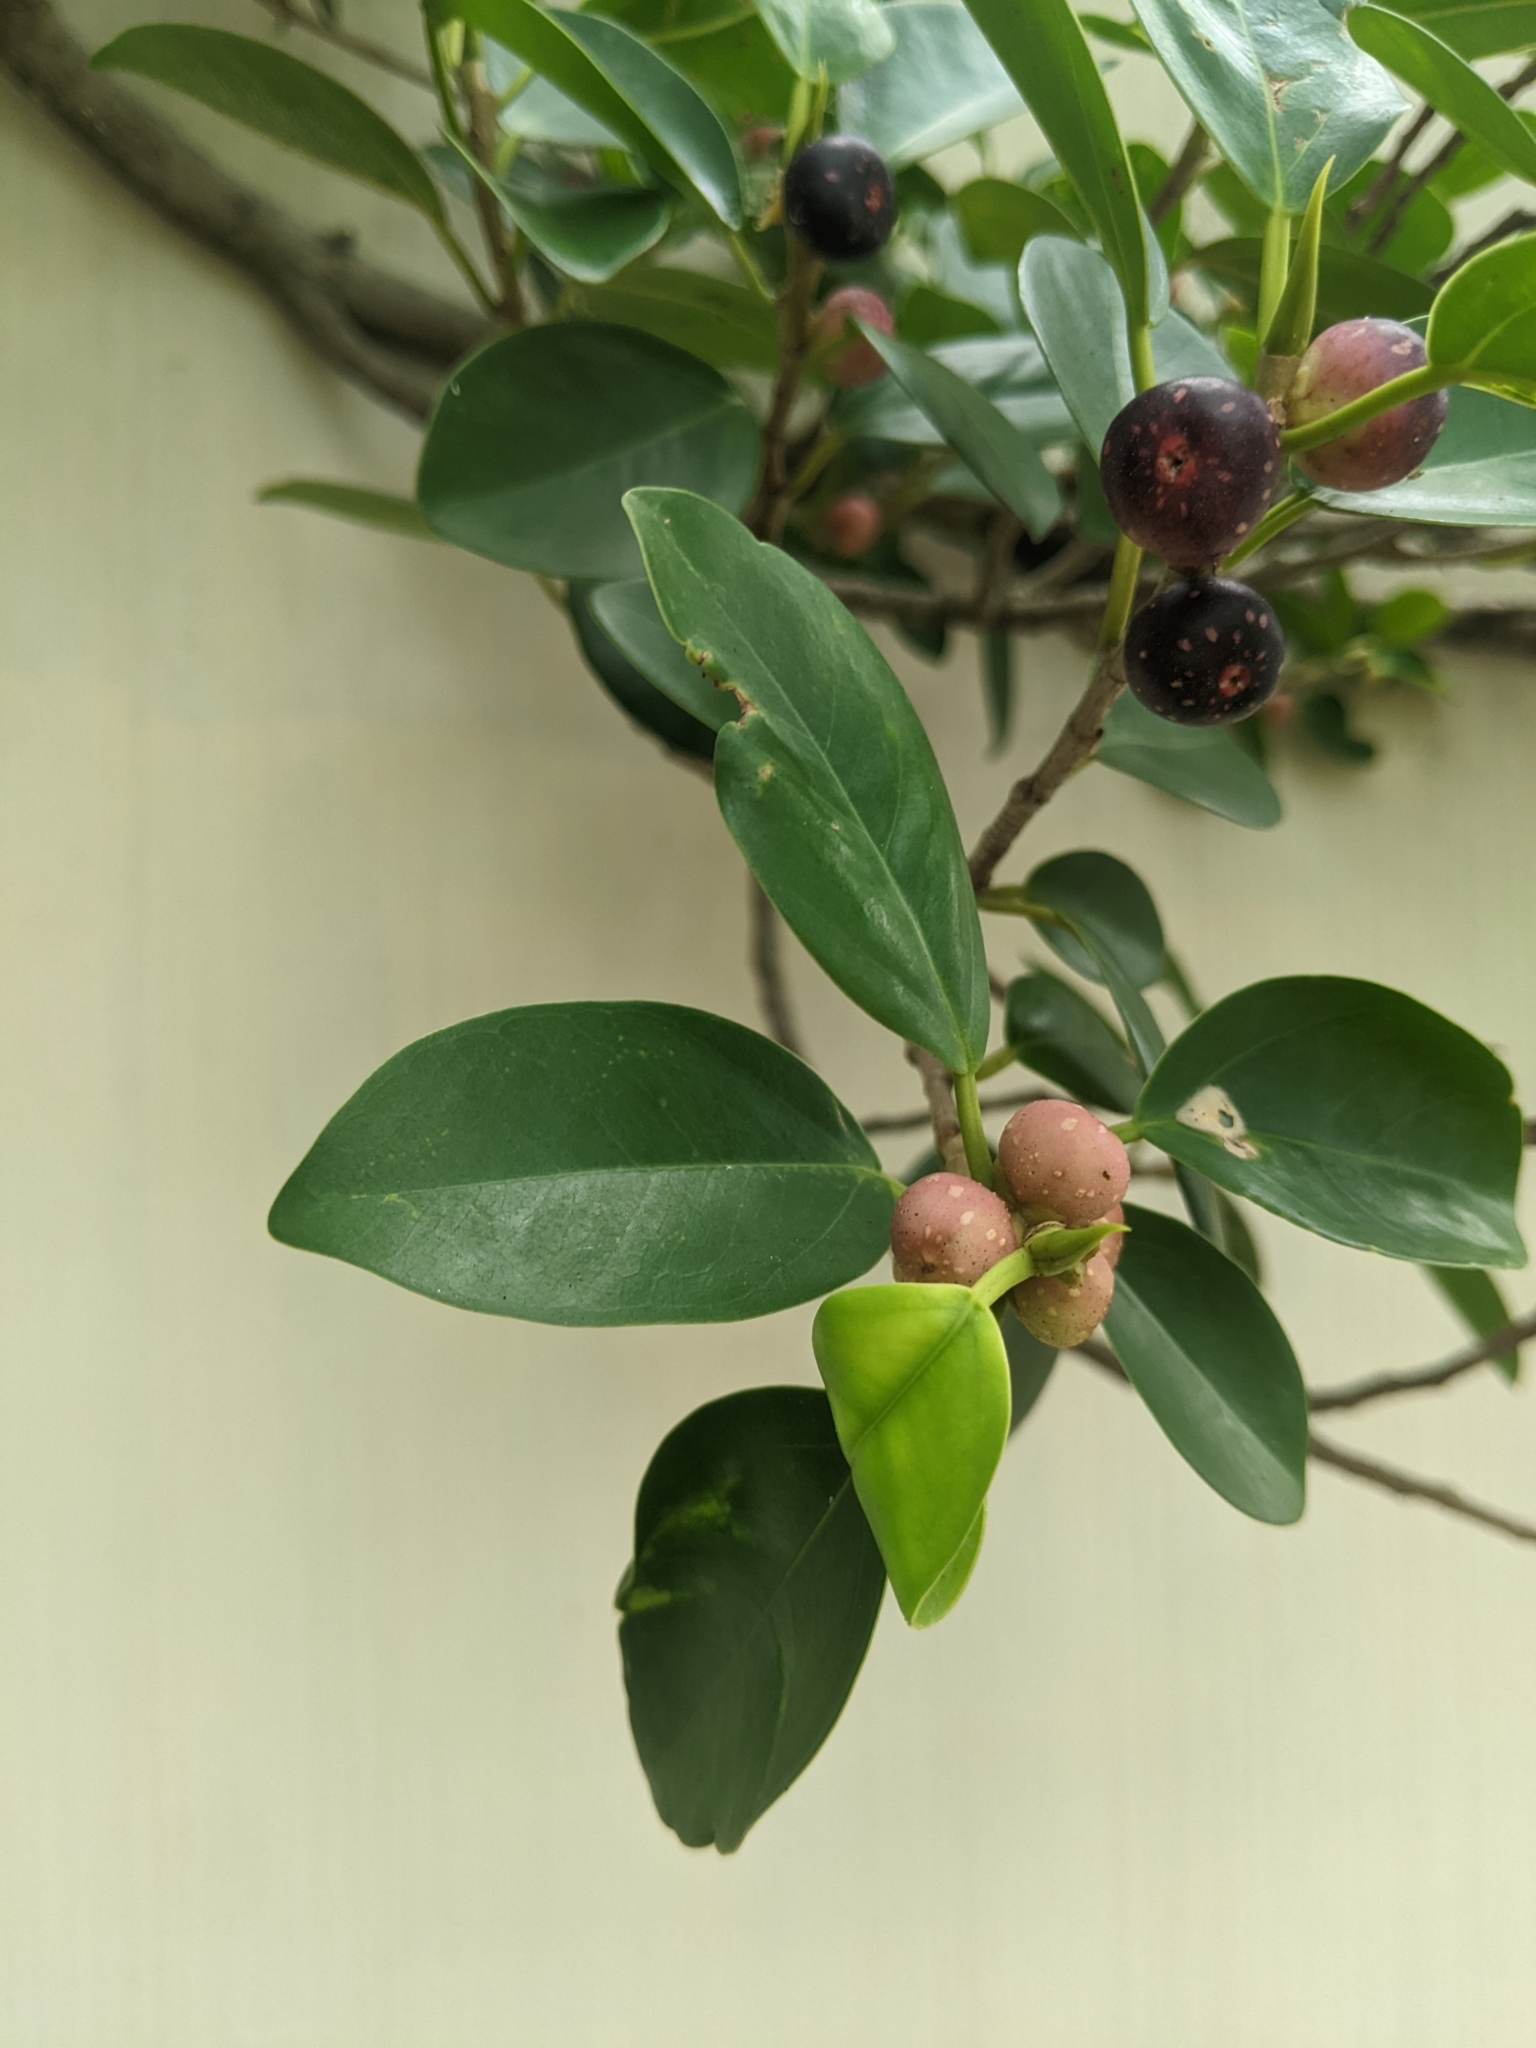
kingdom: Plantae
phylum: Tracheophyta
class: Magnoliopsida
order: Rosales
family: Moraceae
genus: Ficus
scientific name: Ficus microcarpa
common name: Chinese banyan
